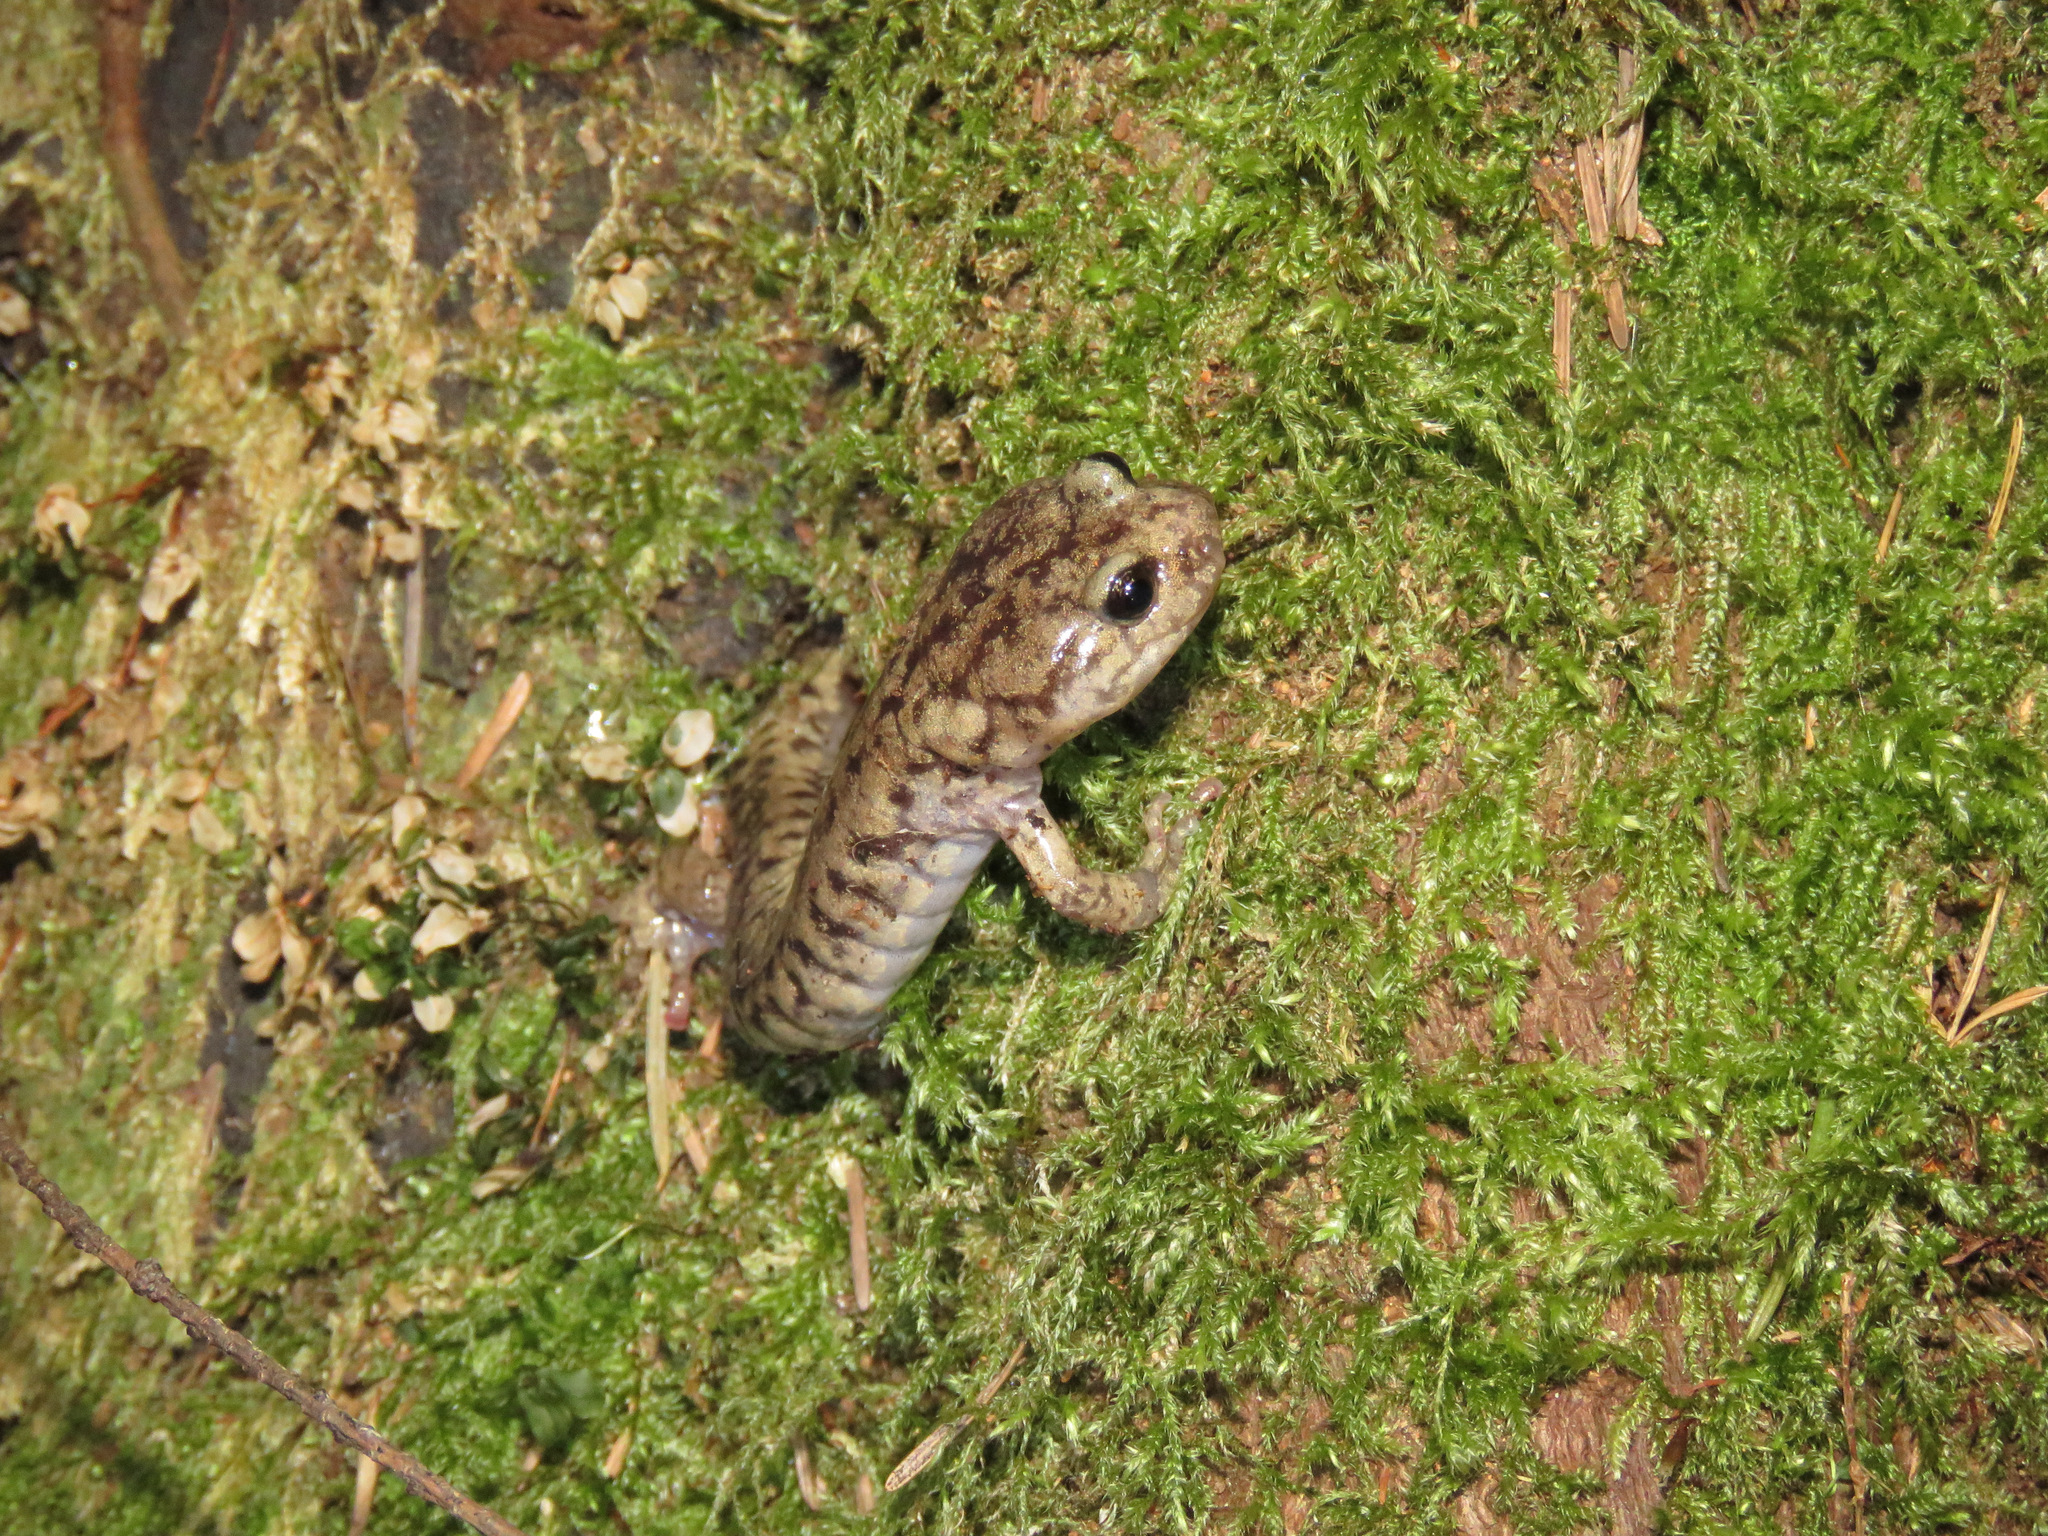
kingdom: Animalia
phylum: Chordata
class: Amphibia
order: Caudata
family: Plethodontidae
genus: Aneides
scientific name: Aneides vagrans
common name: Wandering salamander
